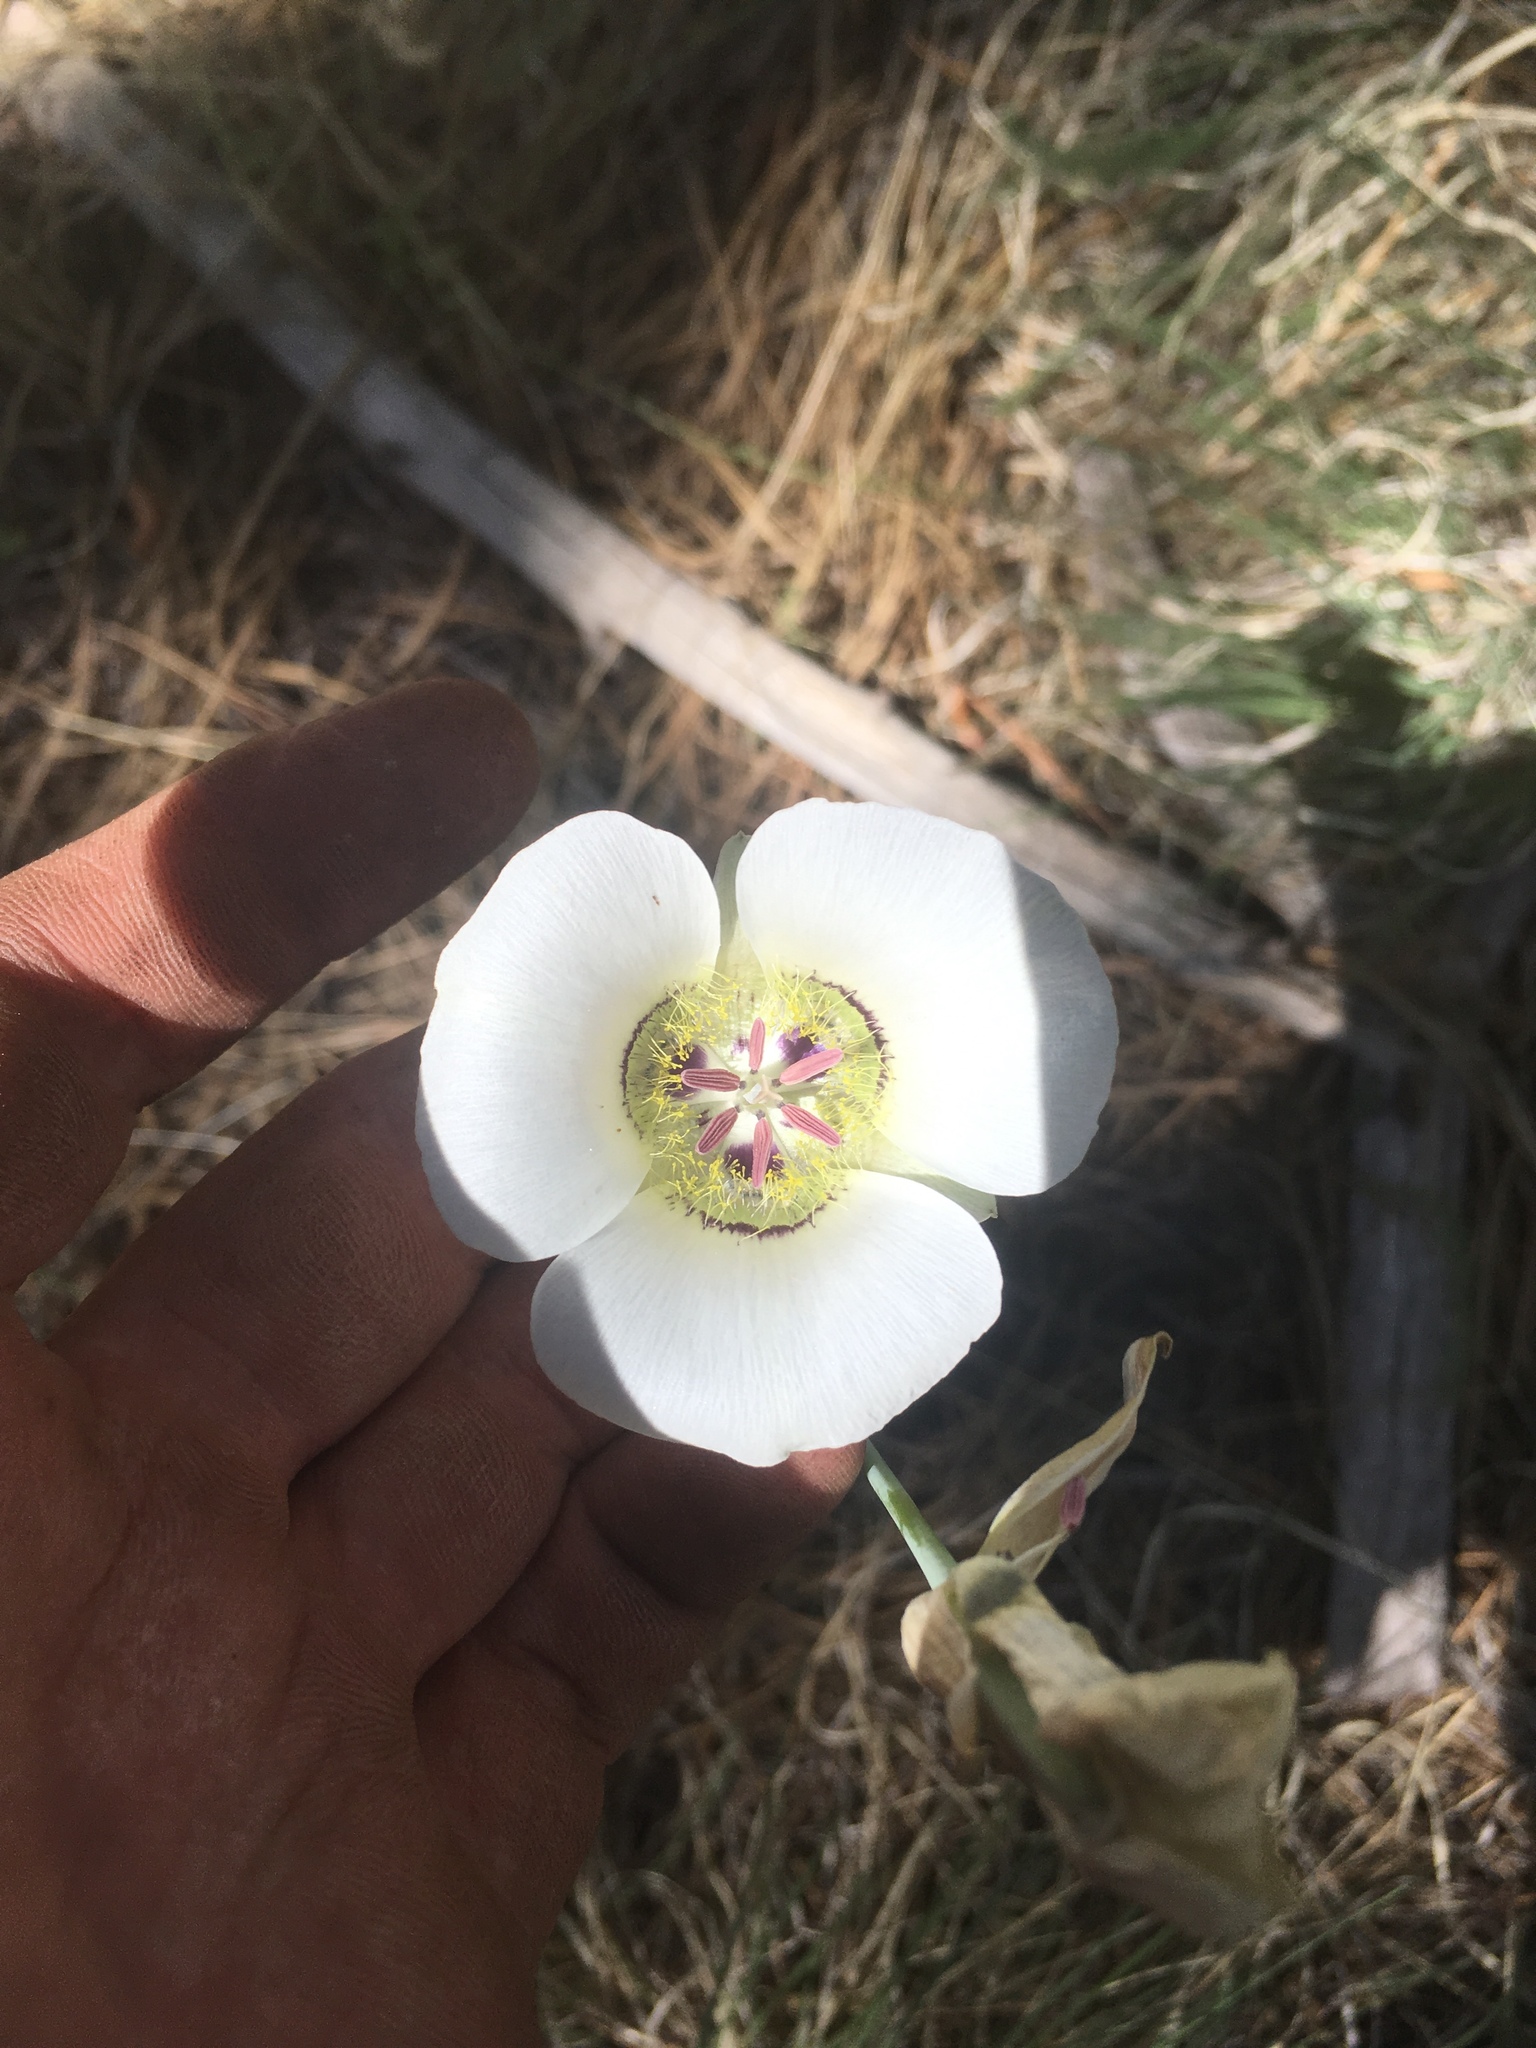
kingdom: Plantae
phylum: Tracheophyta
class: Liliopsida
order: Liliales
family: Liliaceae
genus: Calochortus
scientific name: Calochortus ambiguus
